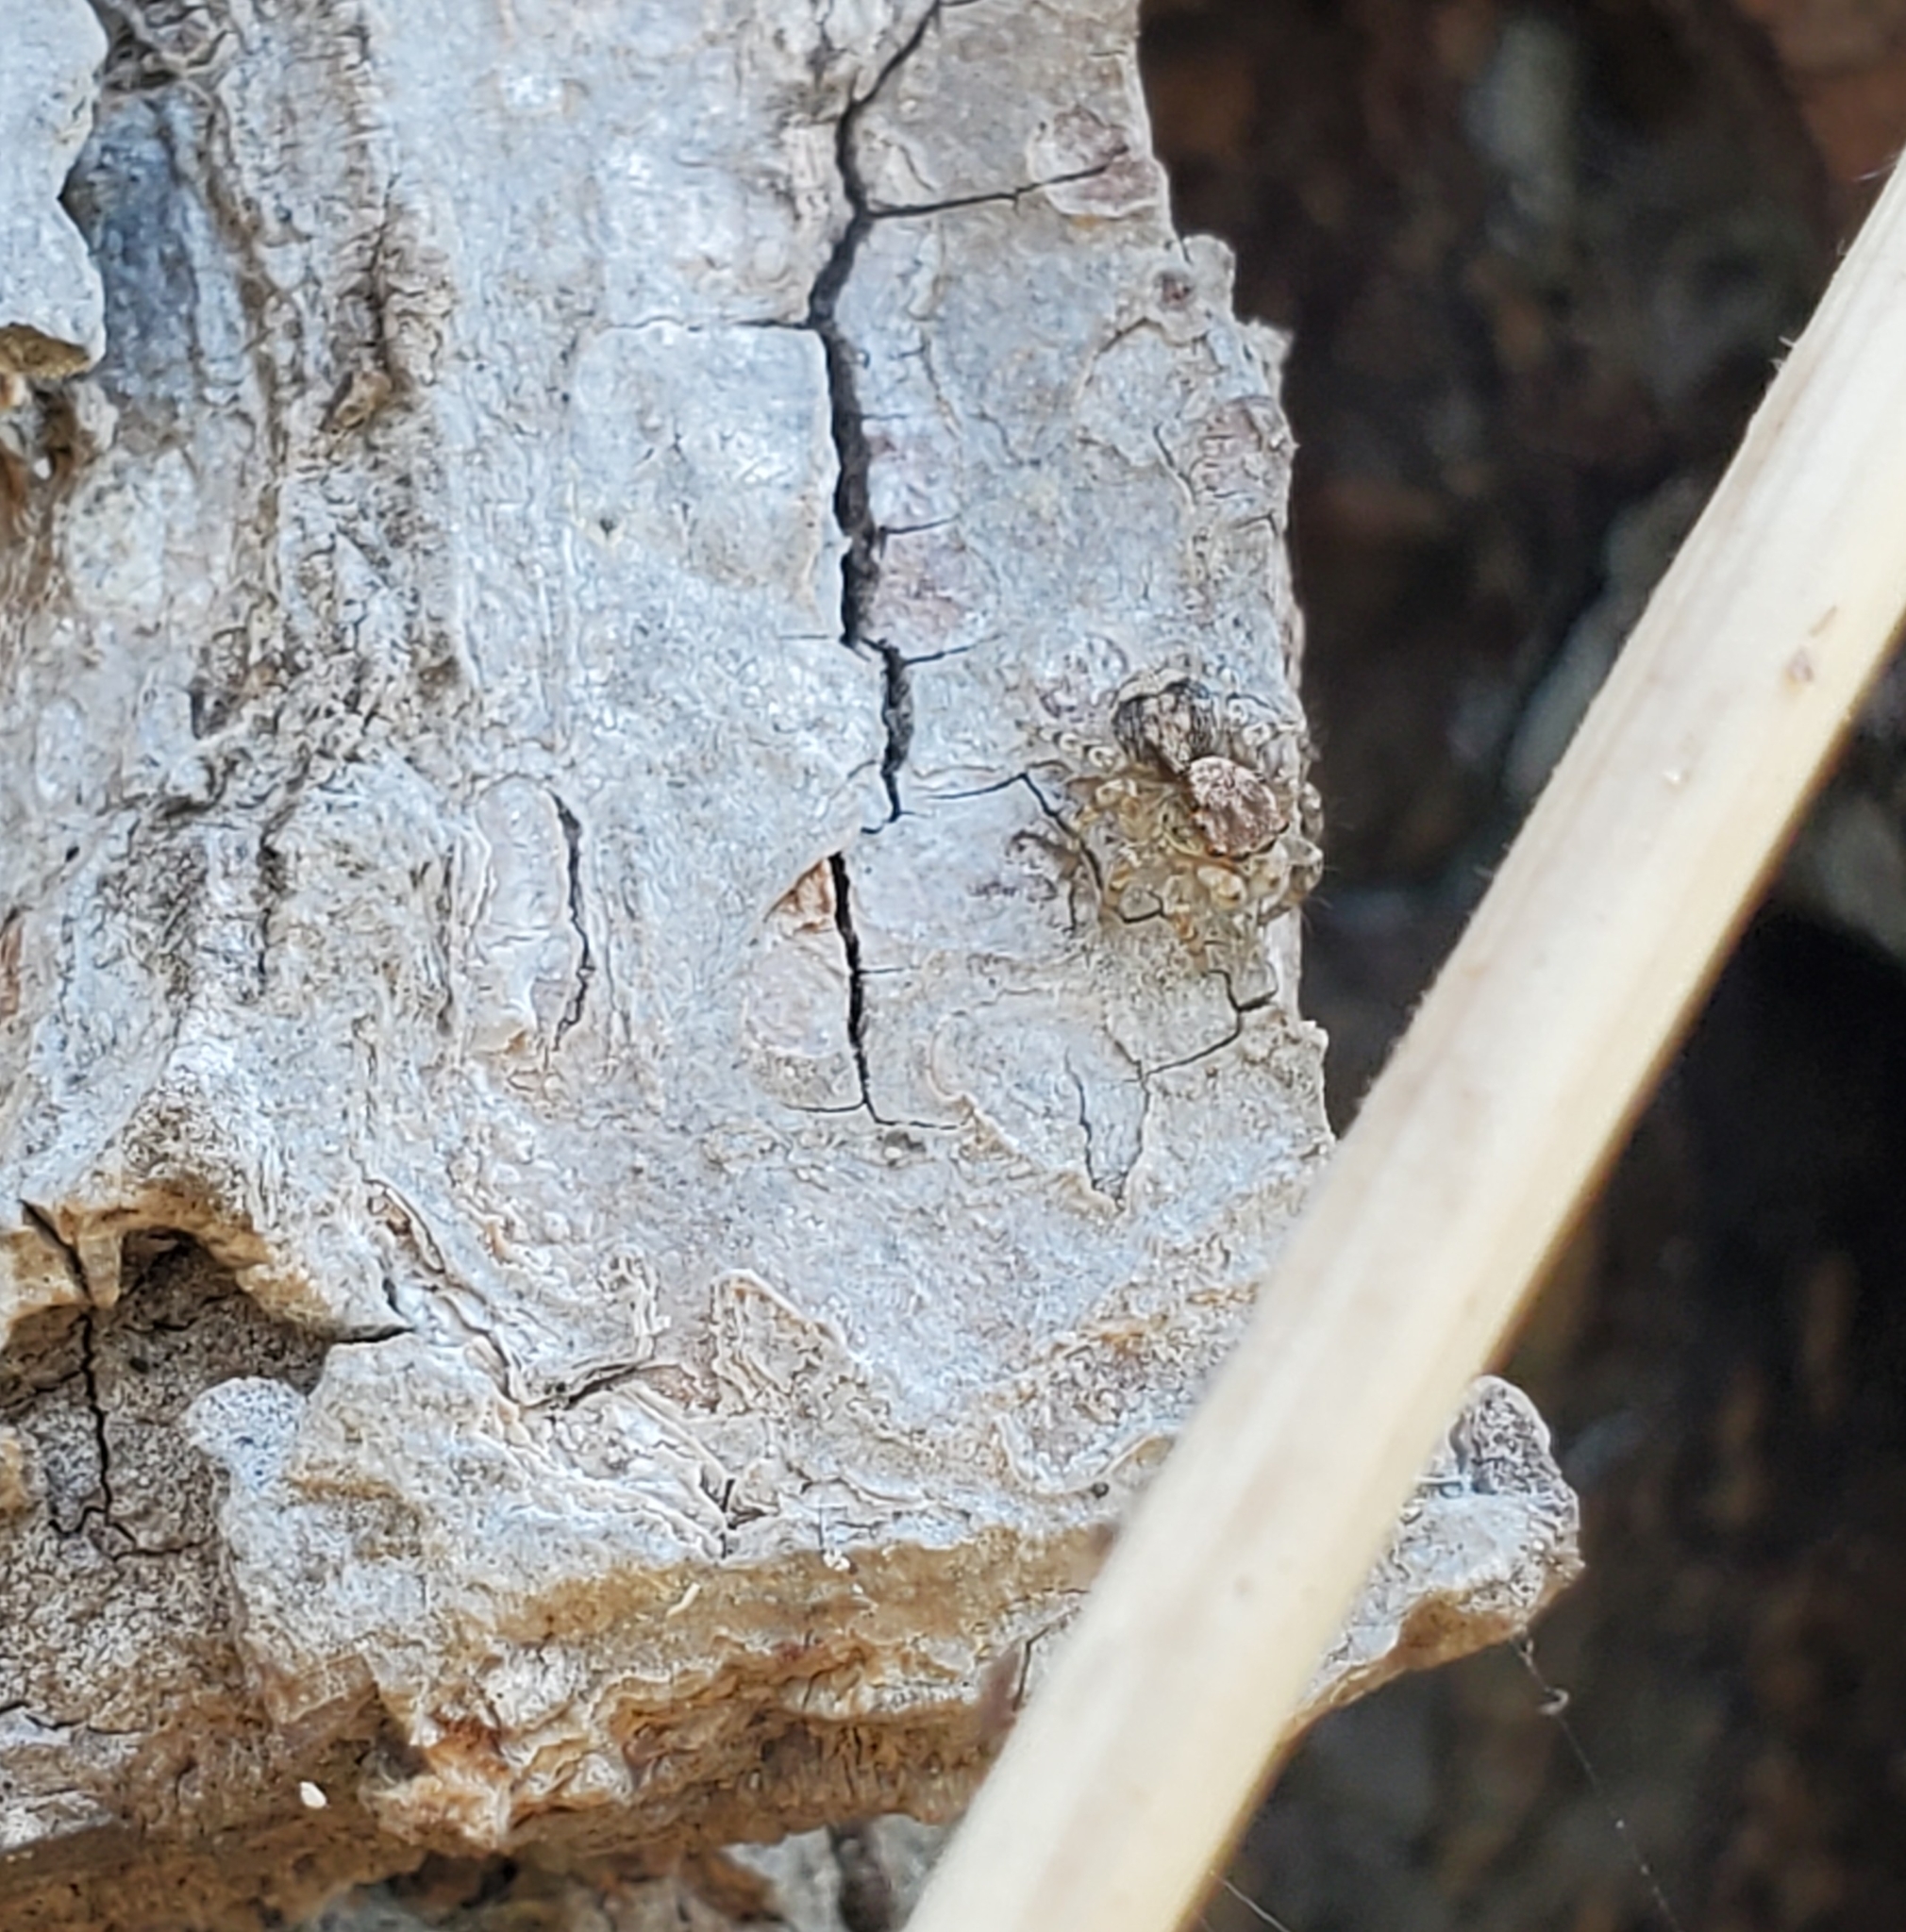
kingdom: Animalia
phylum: Arthropoda
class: Arachnida
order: Araneae
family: Salticidae
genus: Naphrys
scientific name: Naphrys pulex
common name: Flea jumping spider
